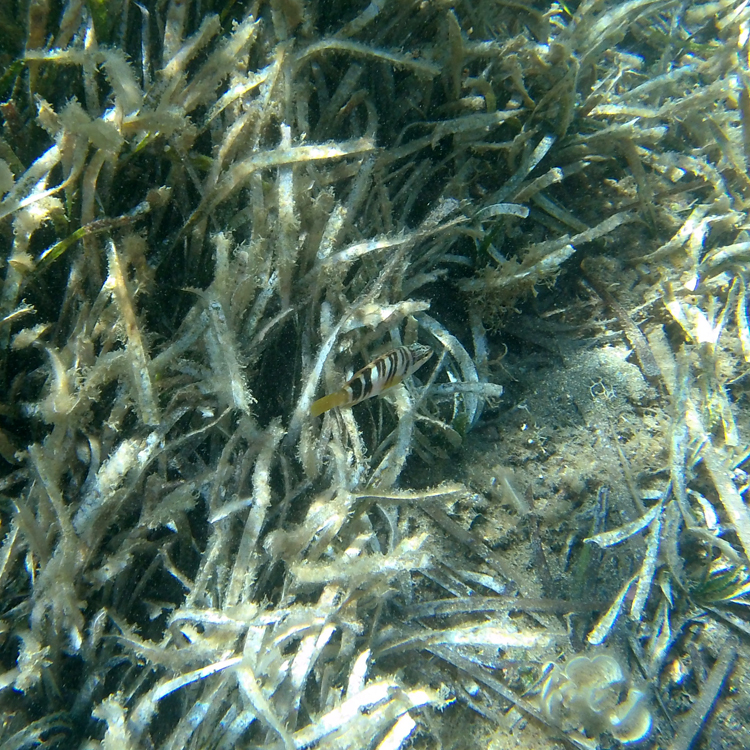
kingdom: Animalia
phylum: Chordata
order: Perciformes
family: Serranidae
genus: Serranus
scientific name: Serranus scriba
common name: Painted comber
